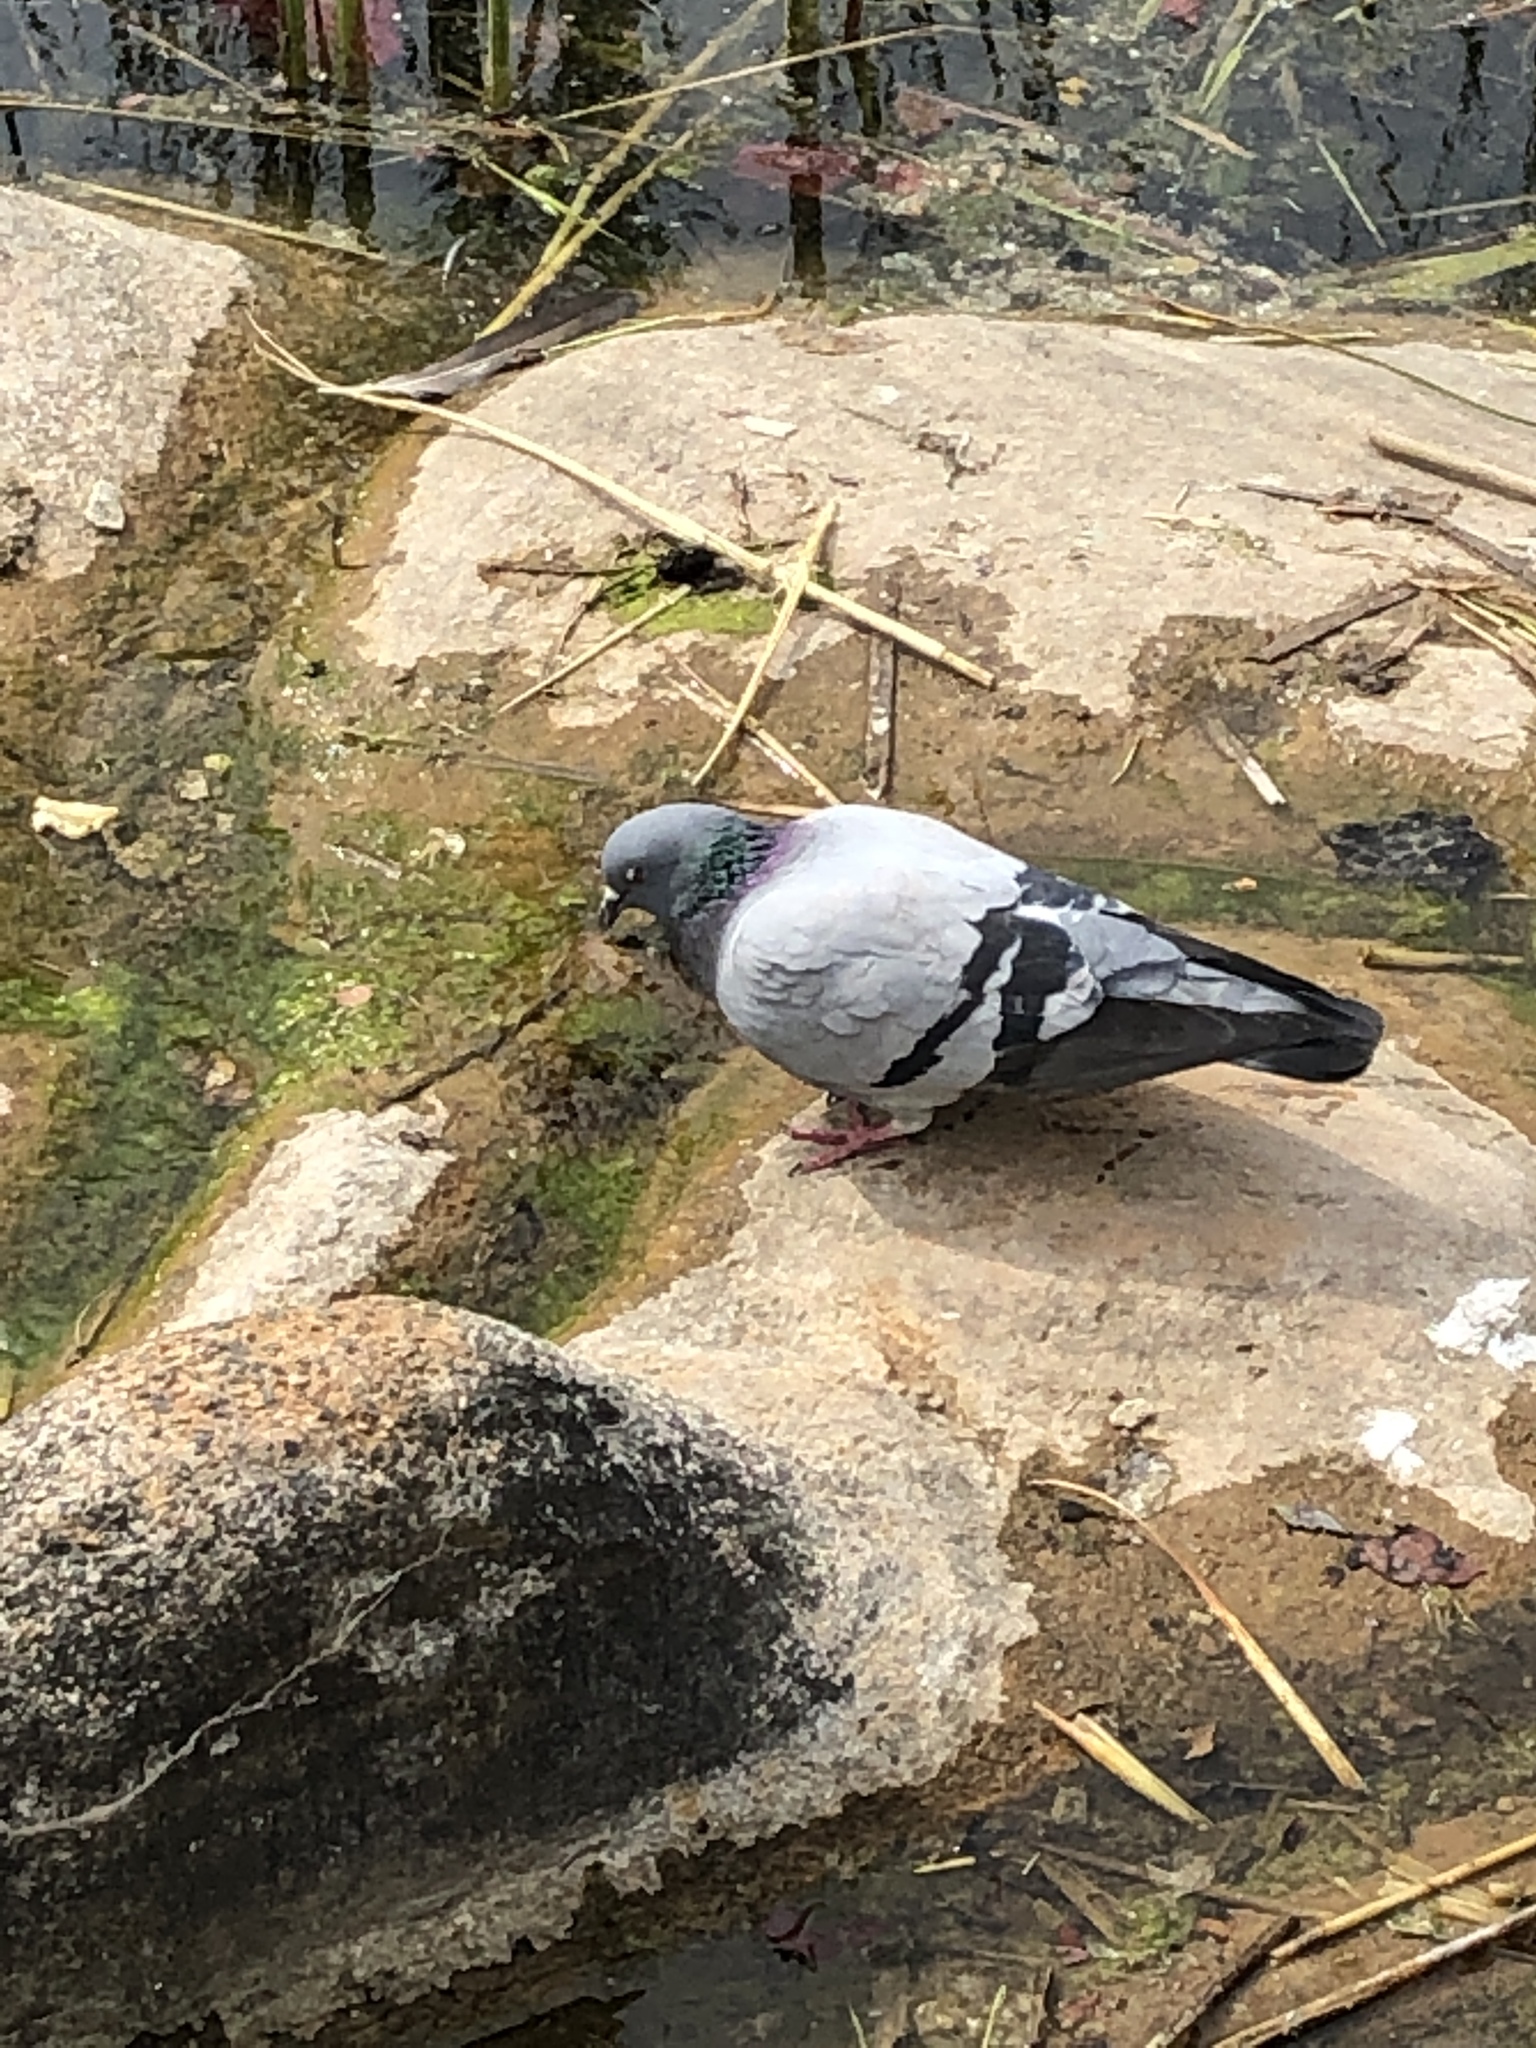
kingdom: Animalia
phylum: Chordata
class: Aves
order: Columbiformes
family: Columbidae
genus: Columba
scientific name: Columba livia
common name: Rock pigeon
